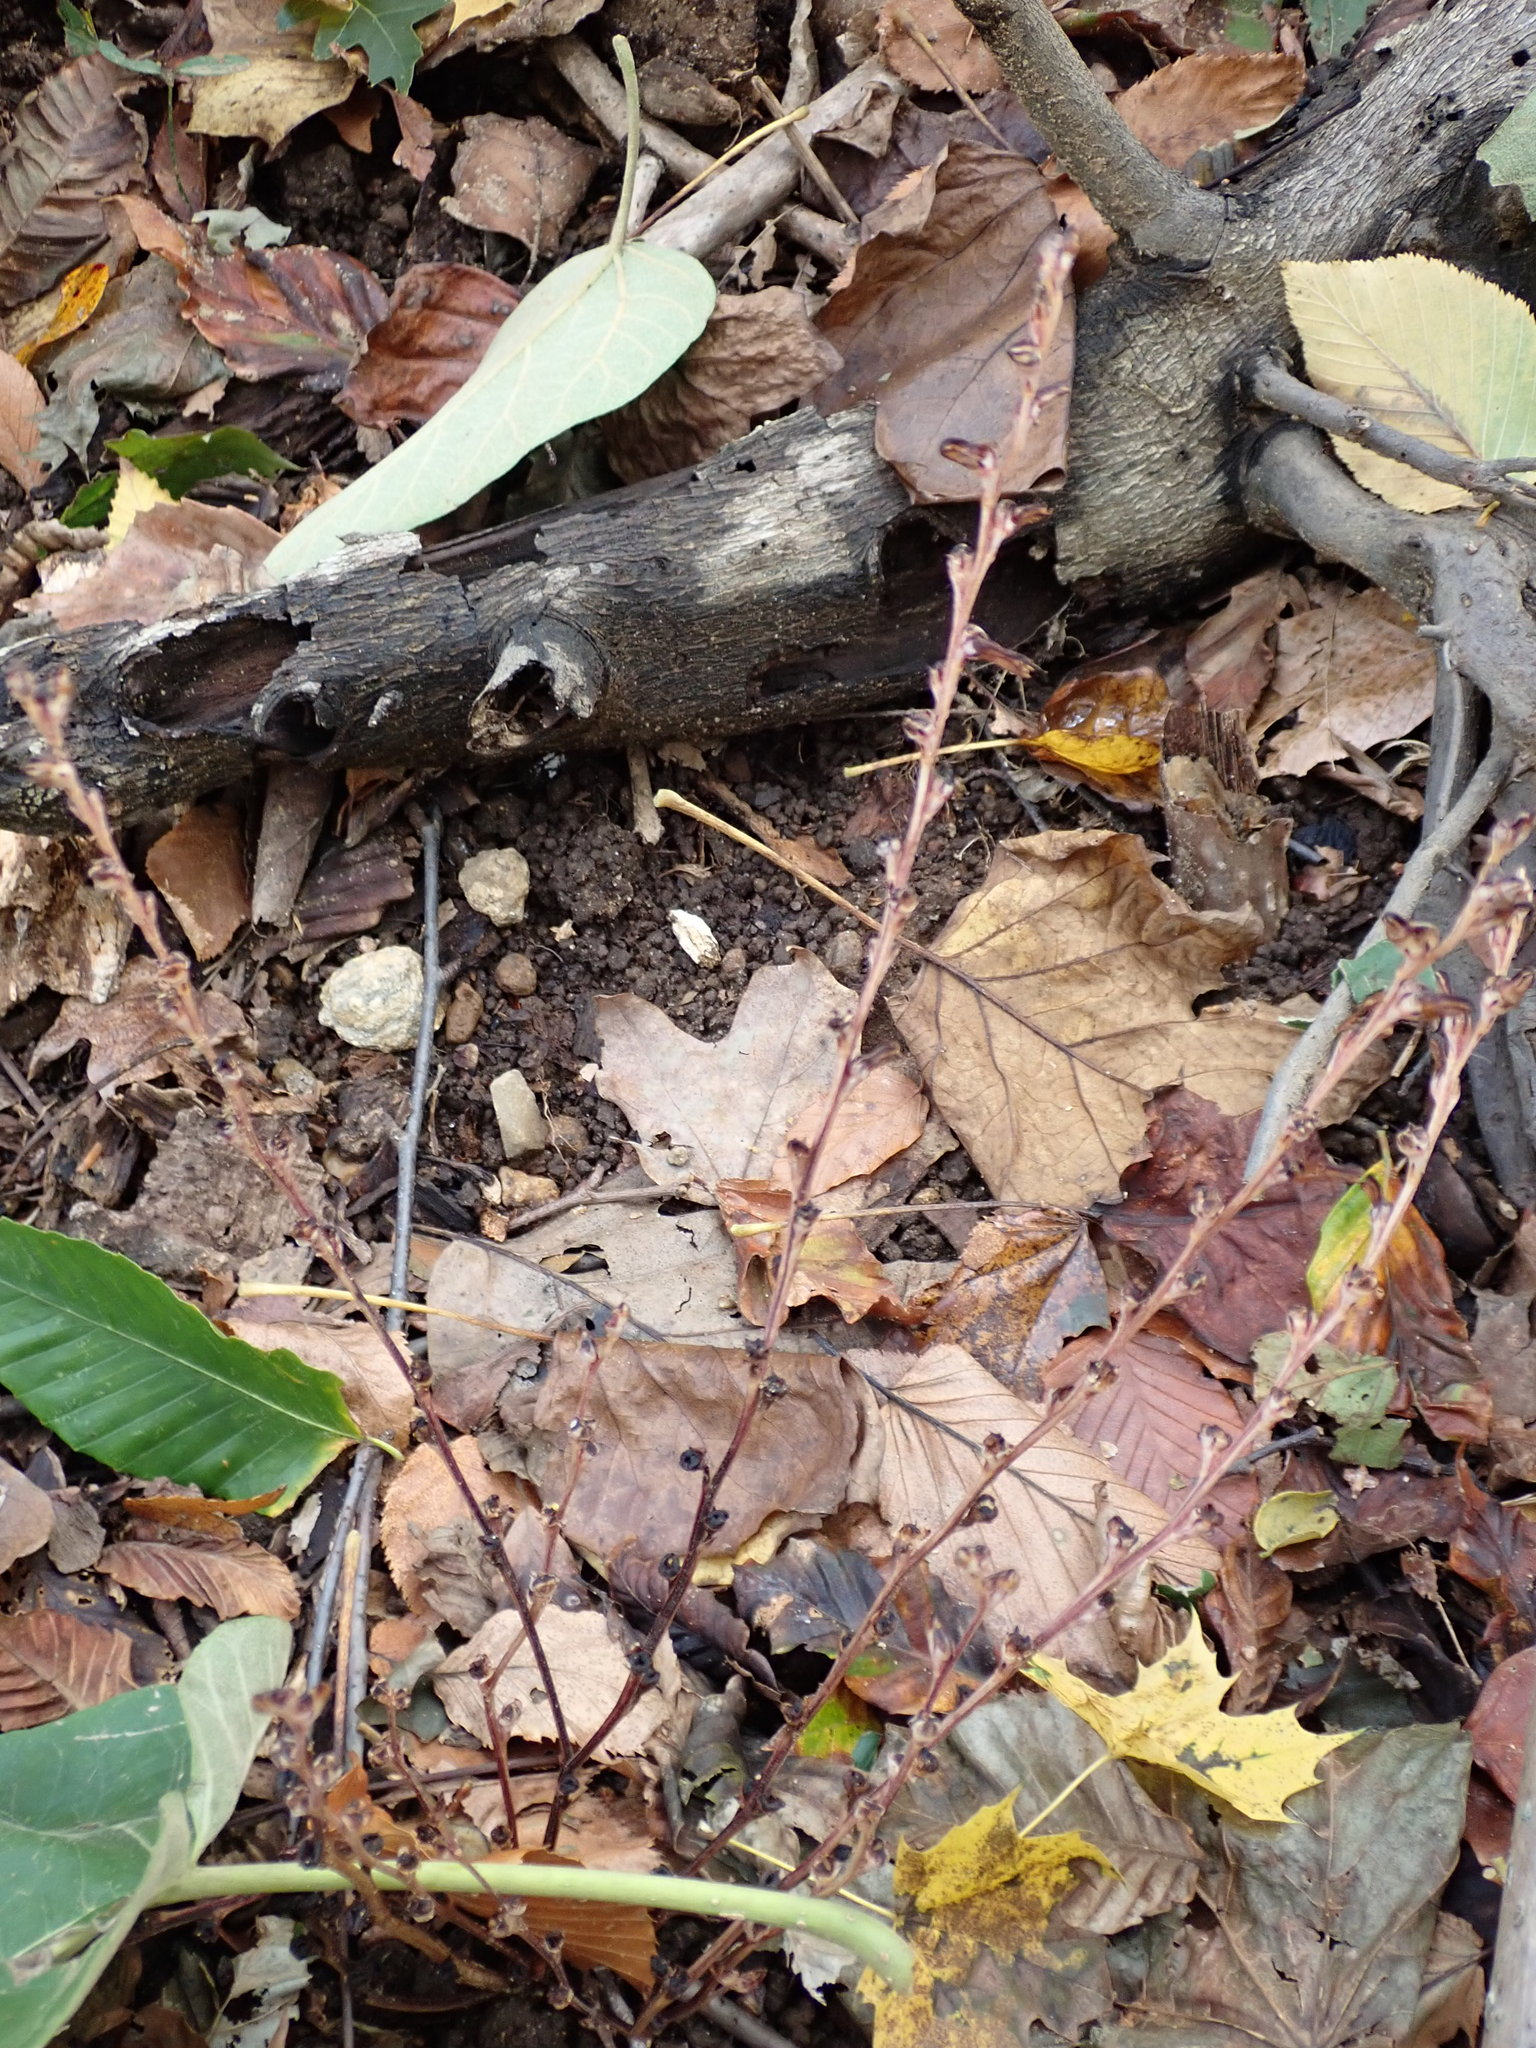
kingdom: Plantae
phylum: Tracheophyta
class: Magnoliopsida
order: Lamiales
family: Orobanchaceae
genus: Epifagus
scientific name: Epifagus virginiana
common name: Beechdrops
